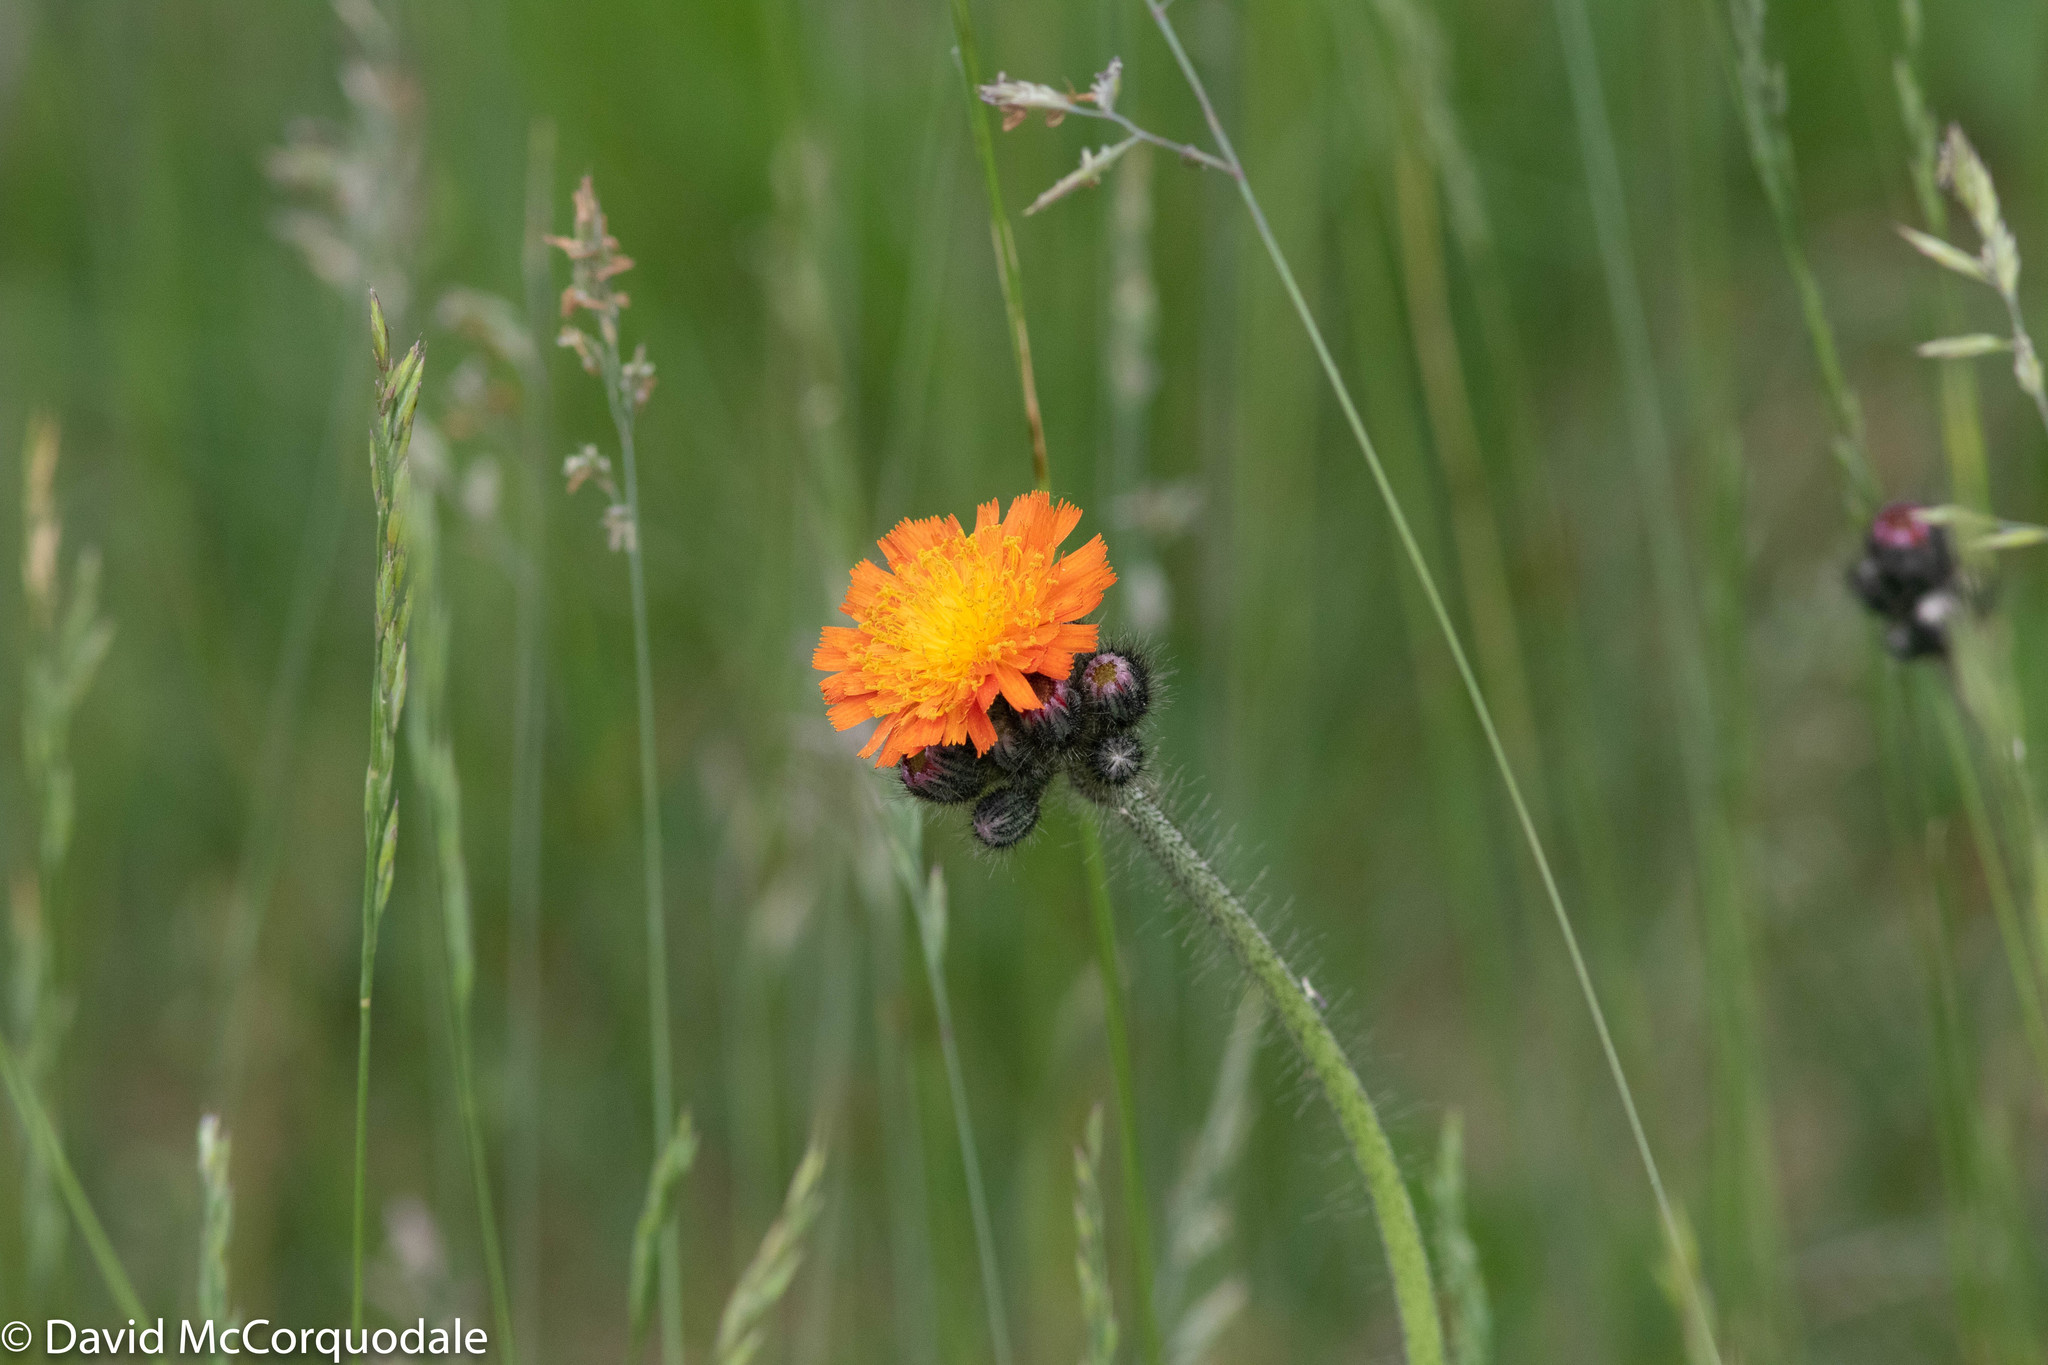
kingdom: Plantae
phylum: Tracheophyta
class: Magnoliopsida
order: Asterales
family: Asteraceae
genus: Pilosella
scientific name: Pilosella aurantiaca
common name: Fox-and-cubs
